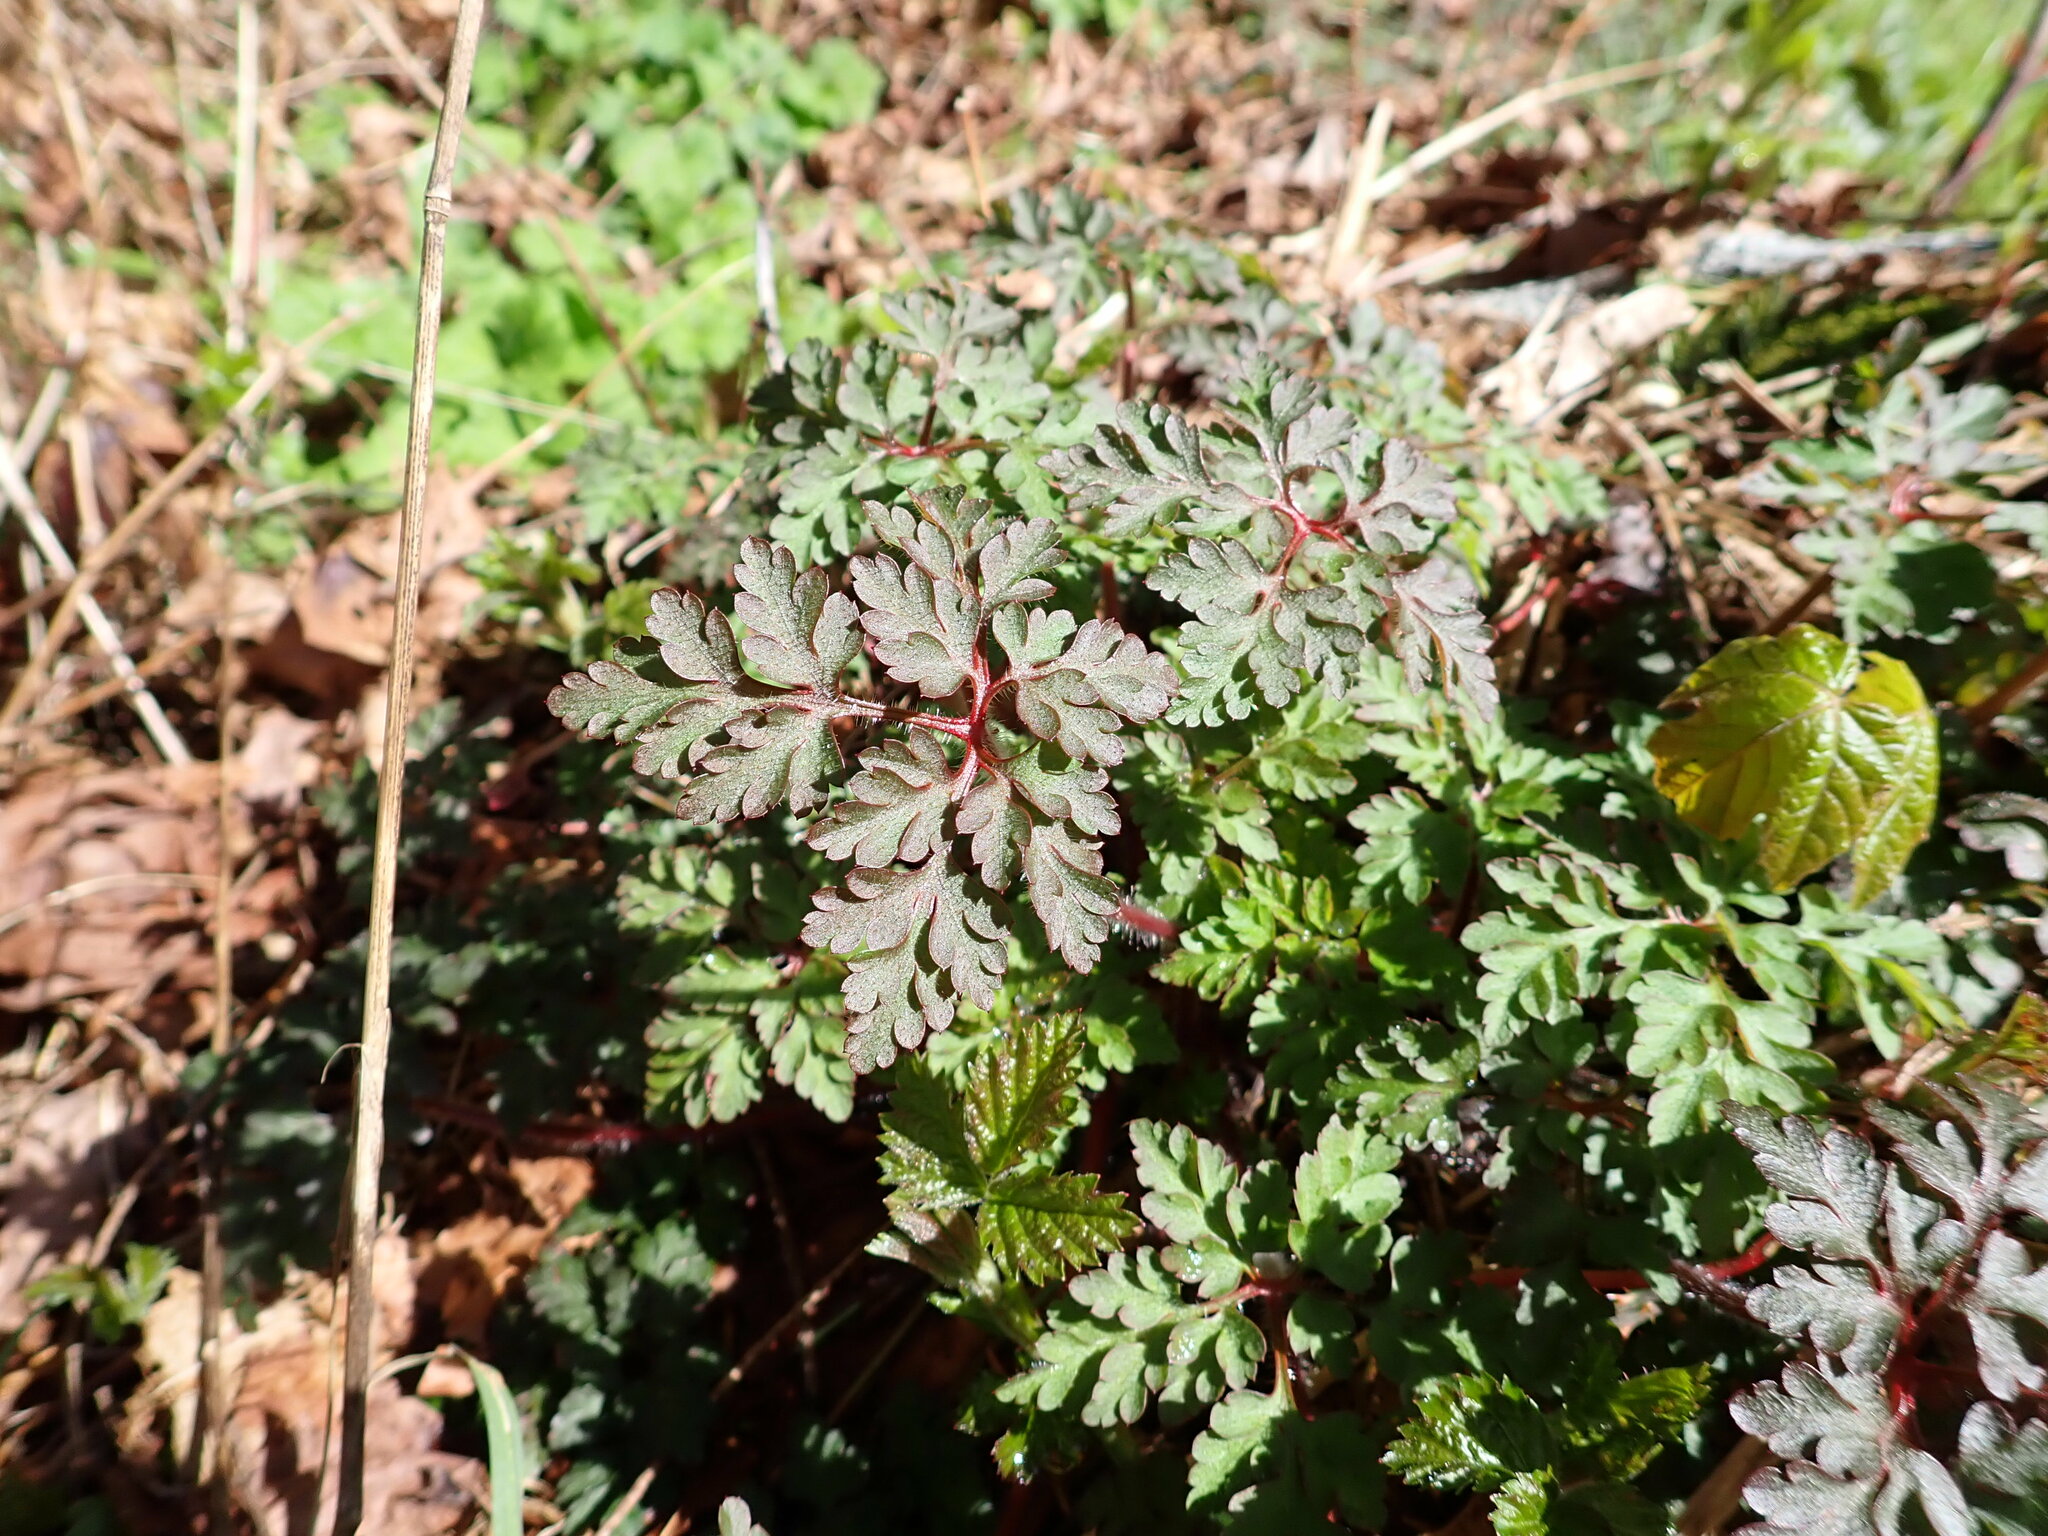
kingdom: Plantae
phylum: Tracheophyta
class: Magnoliopsida
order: Geraniales
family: Geraniaceae
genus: Geranium
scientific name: Geranium robertianum
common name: Herb-robert
